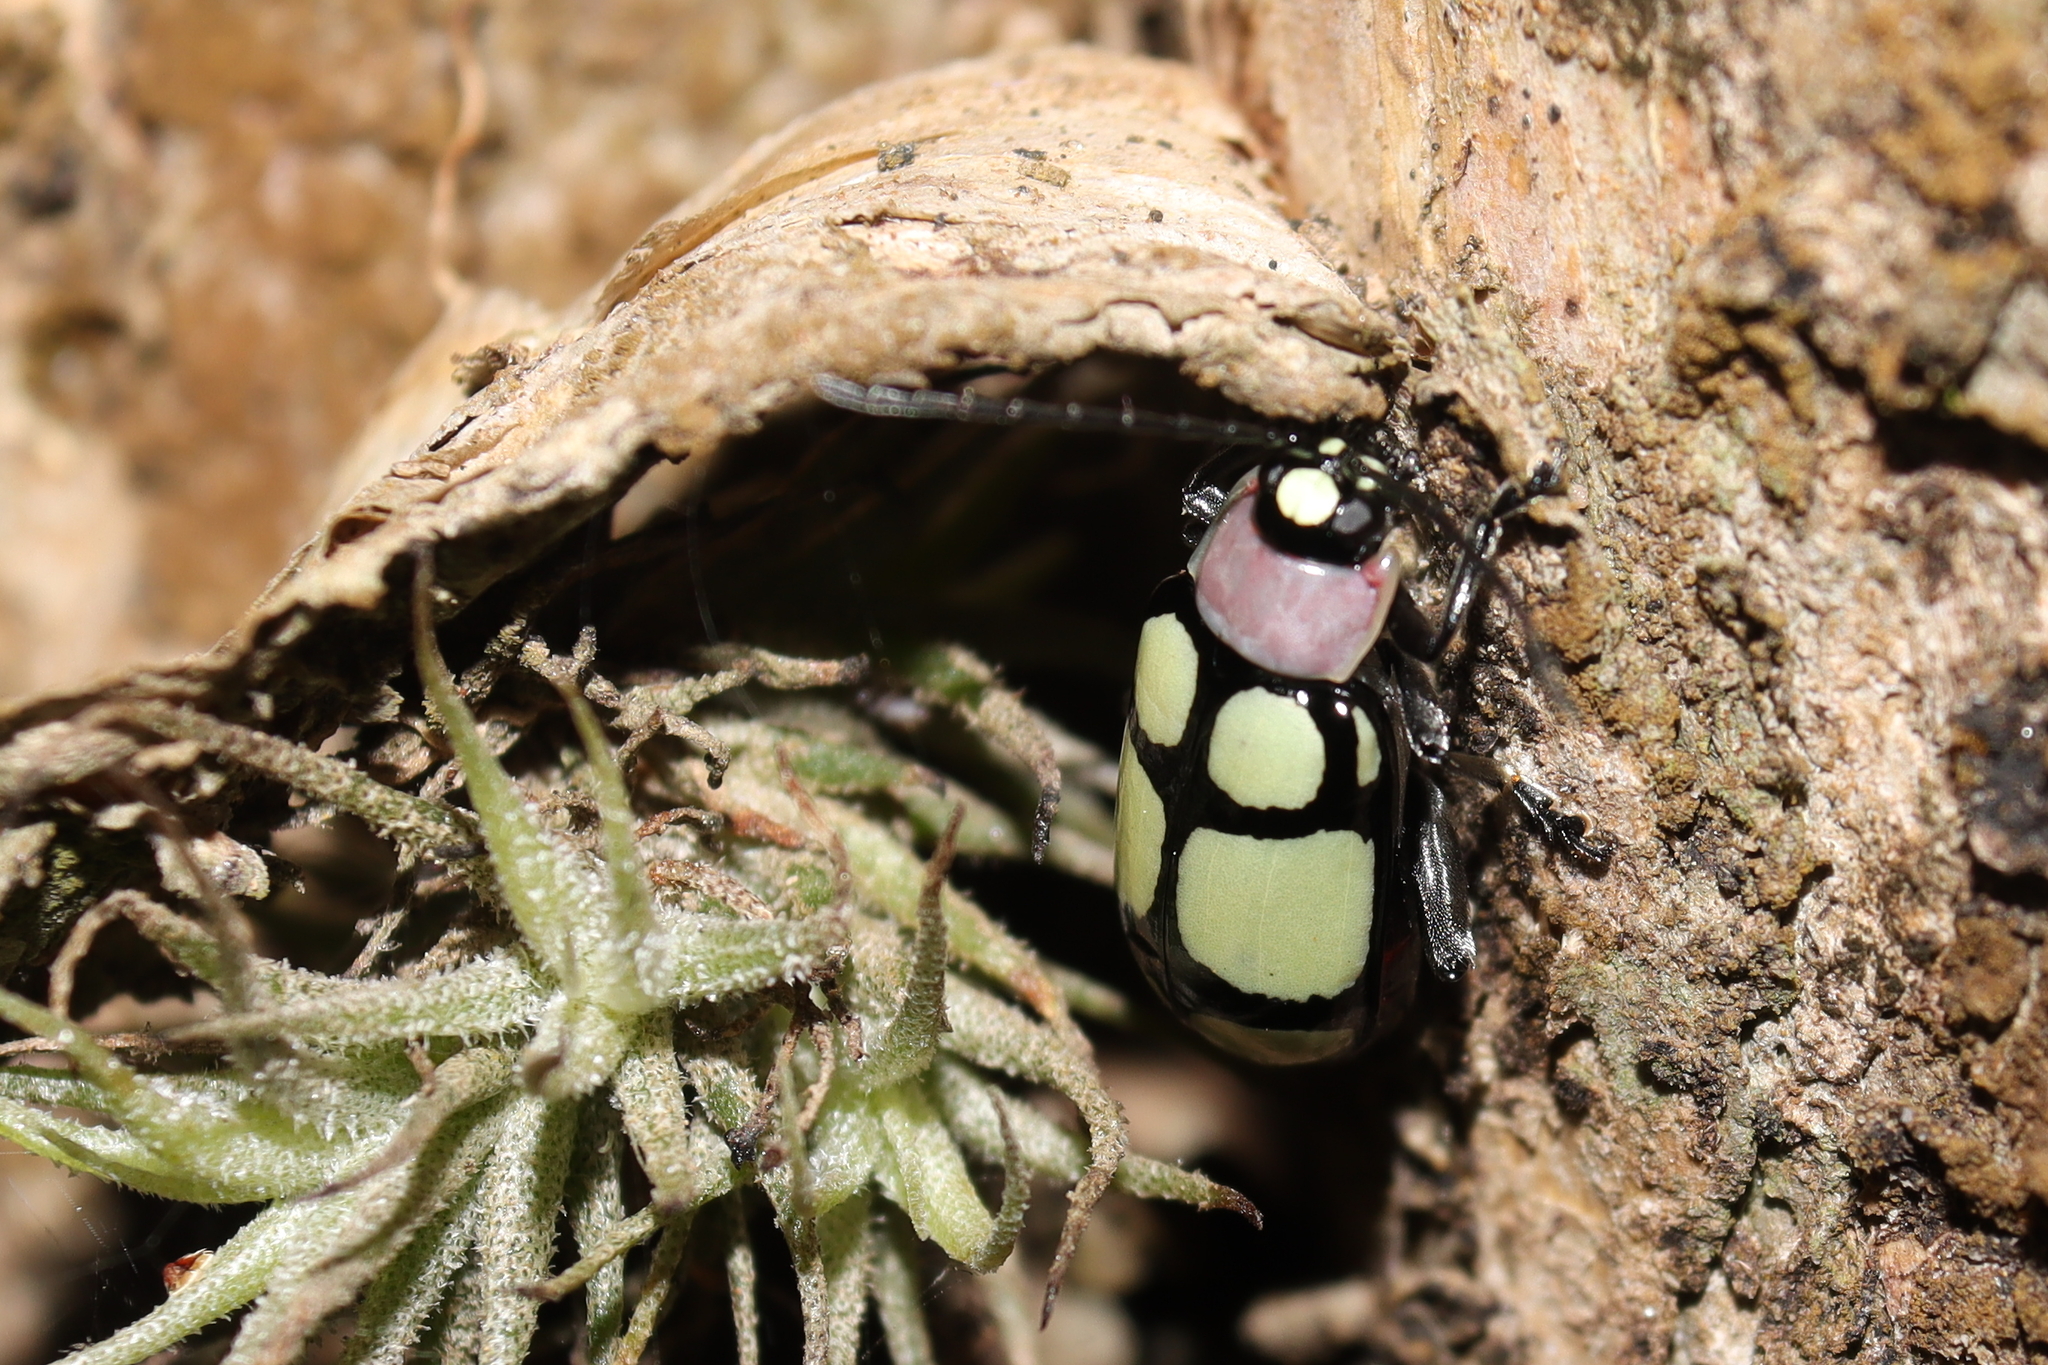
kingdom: Animalia
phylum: Arthropoda
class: Insecta
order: Coleoptera
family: Chrysomelidae
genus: Omophoita
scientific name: Omophoita
